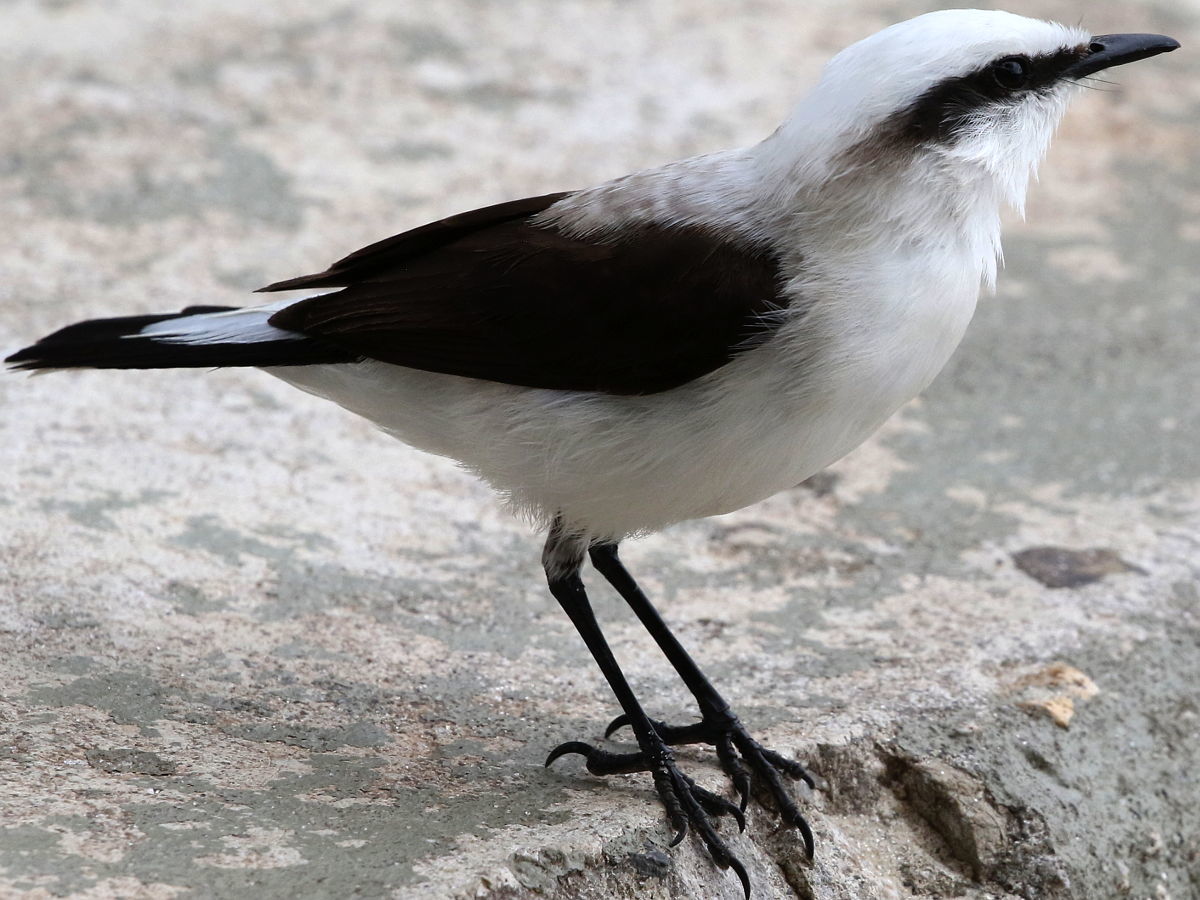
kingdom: Animalia
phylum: Chordata
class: Aves
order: Passeriformes
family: Tyrannidae
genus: Fluvicola
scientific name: Fluvicola nengeta
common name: Masked water tyrant
